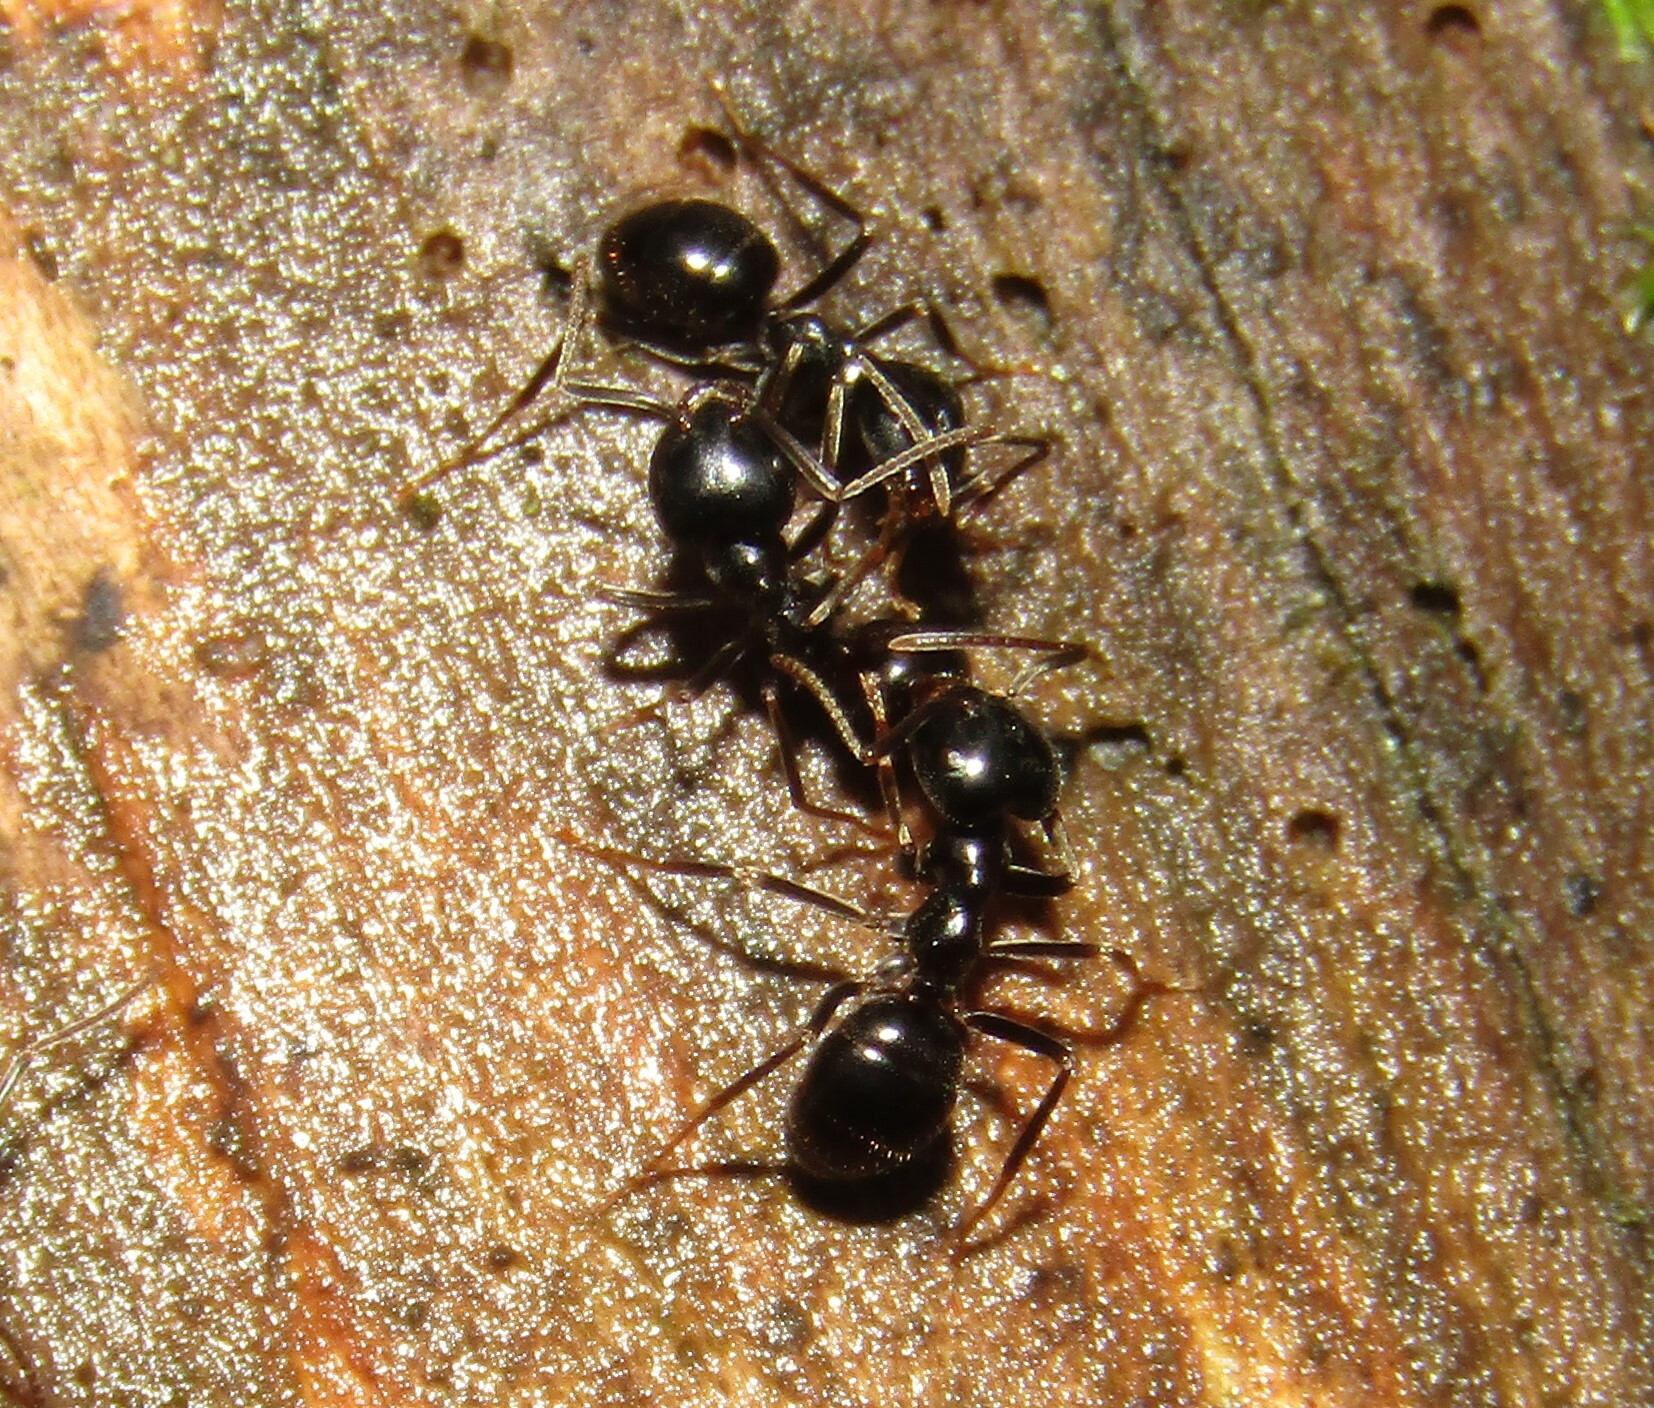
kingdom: Animalia
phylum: Arthropoda
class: Insecta
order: Hymenoptera
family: Formicidae
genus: Lasius
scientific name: Lasius fuliginosus
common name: Jet ant
